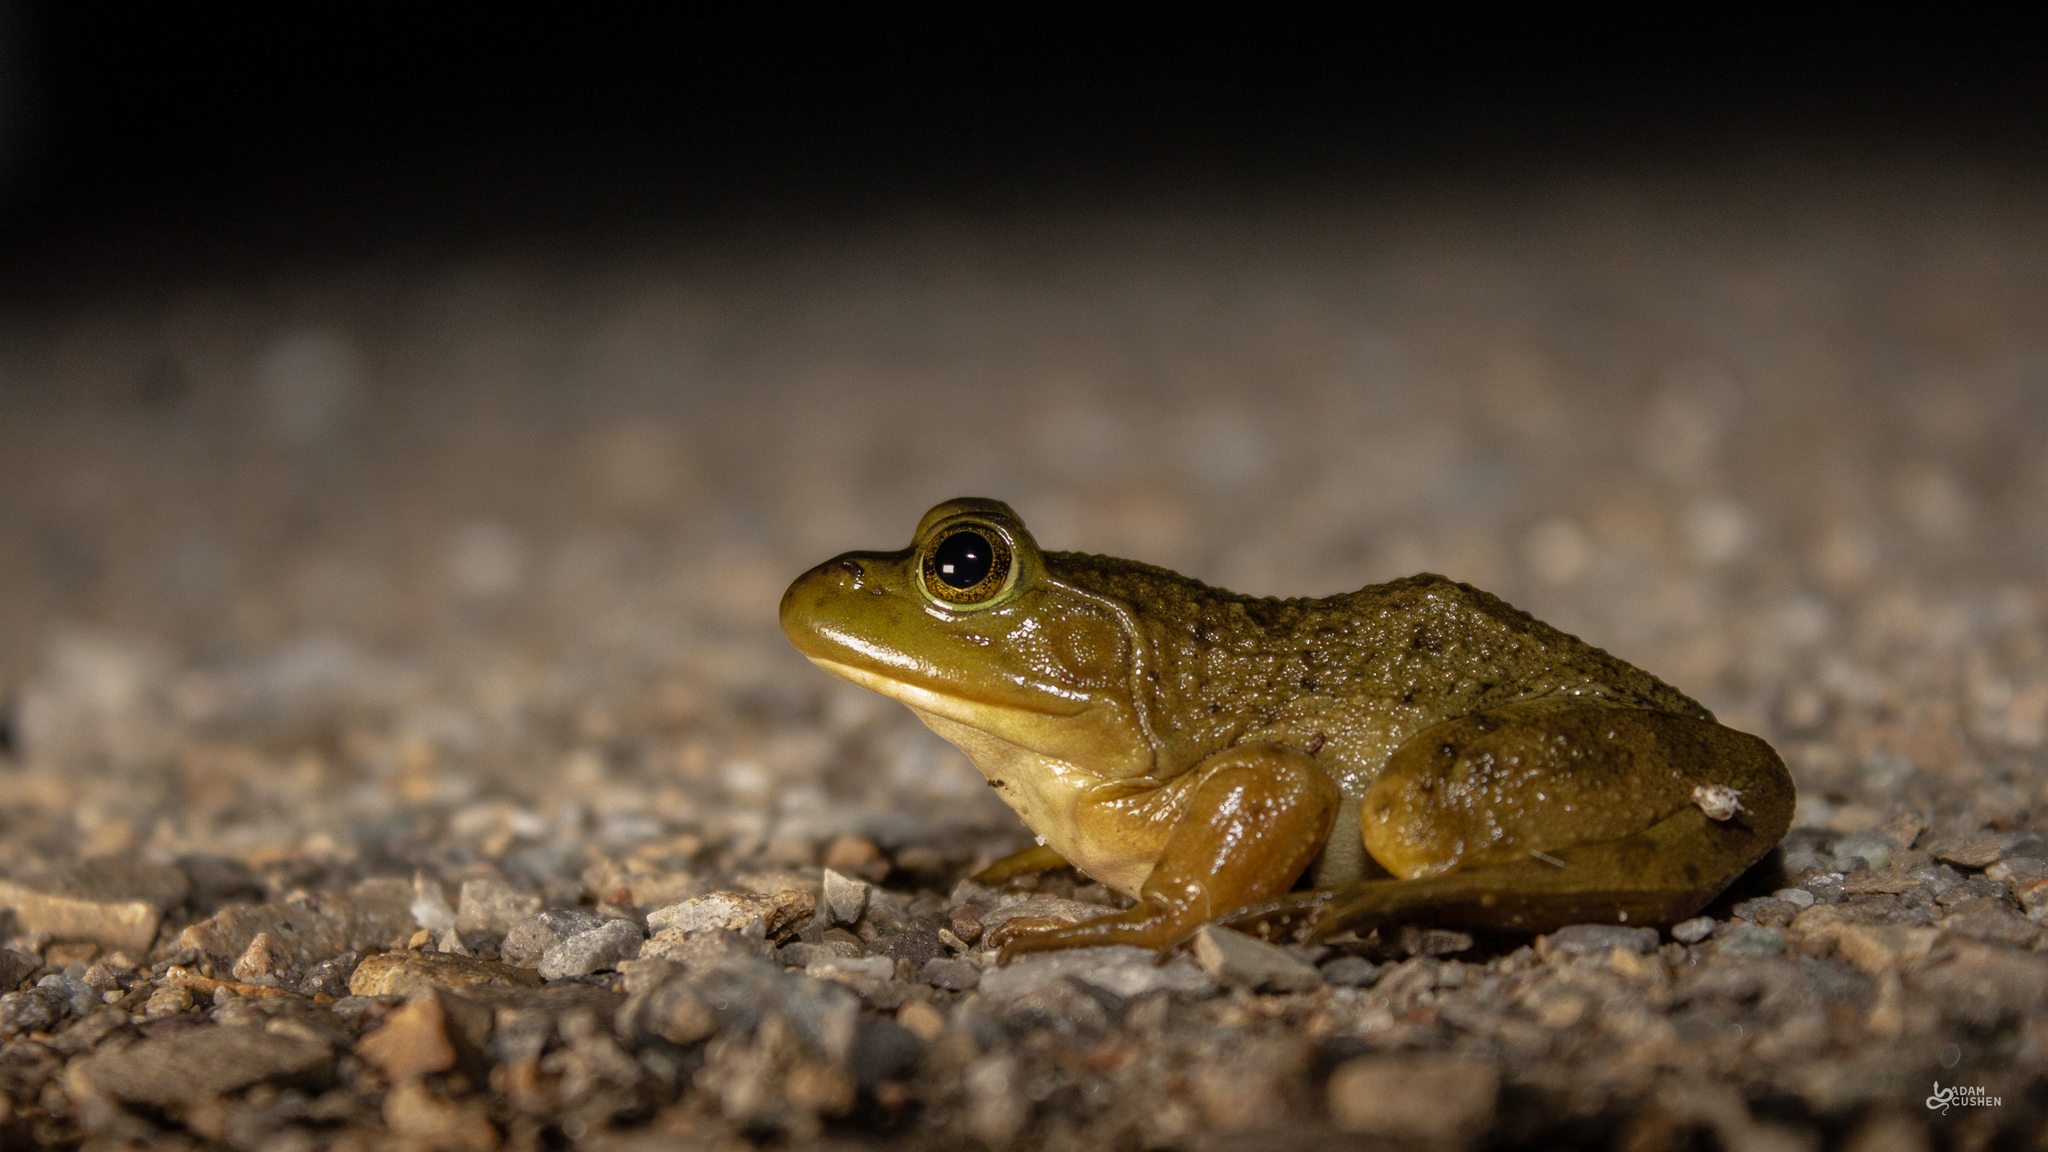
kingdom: Animalia
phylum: Chordata
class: Amphibia
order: Anura
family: Ranidae
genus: Lithobates
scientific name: Lithobates catesbeianus
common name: American bullfrog
